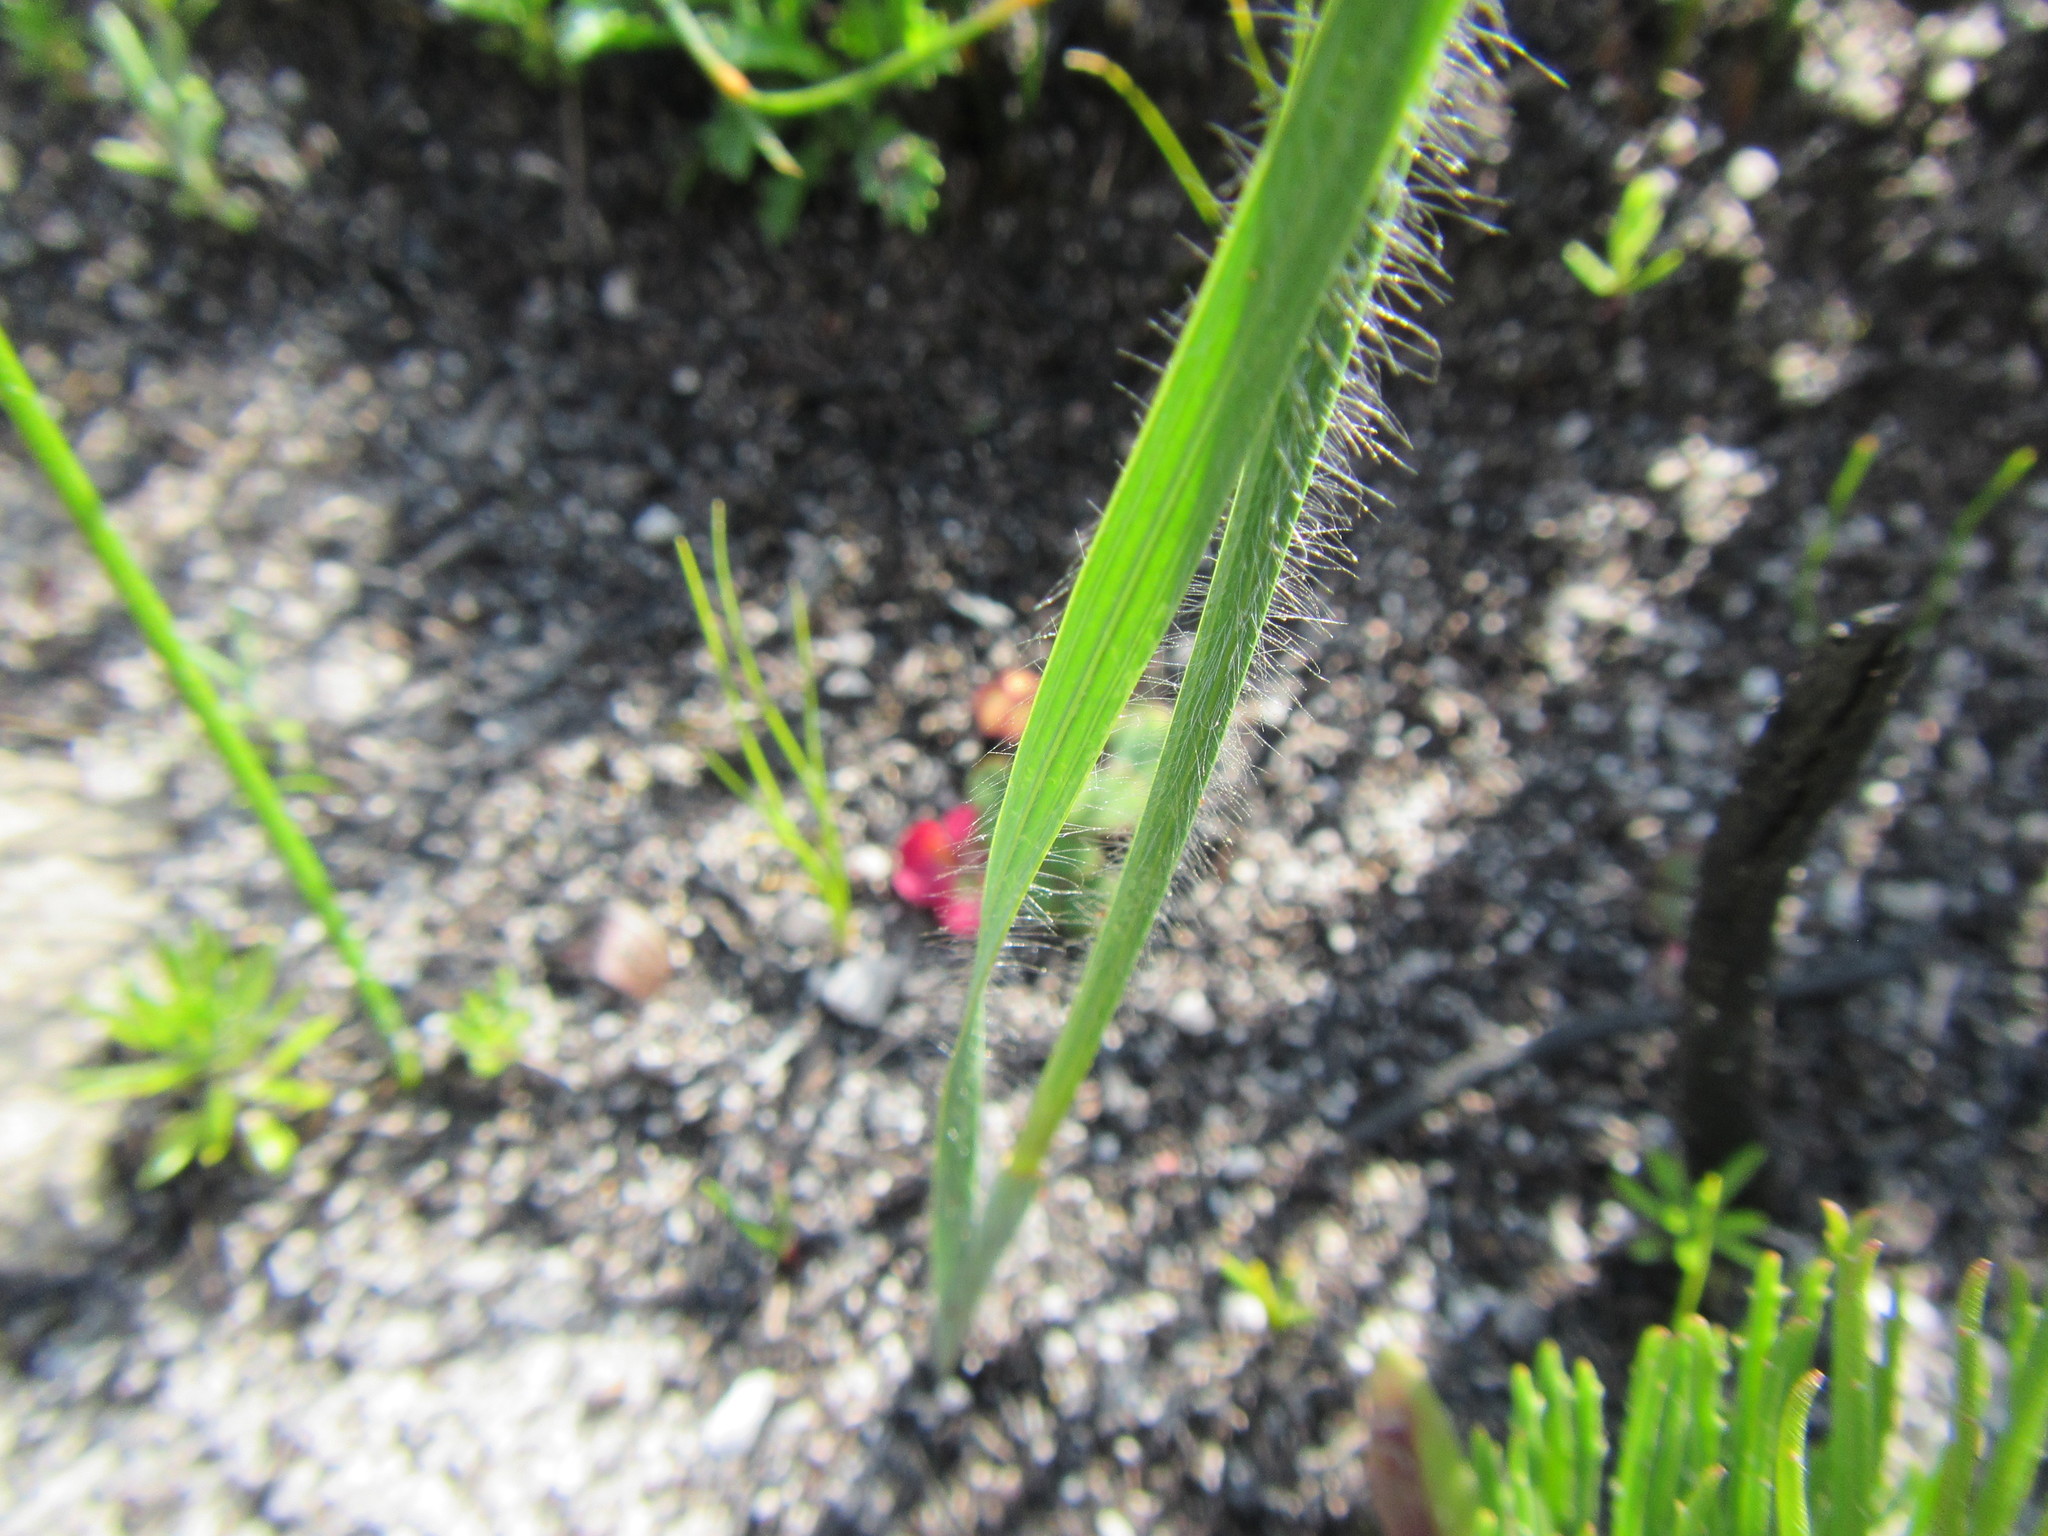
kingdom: Plantae
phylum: Tracheophyta
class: Liliopsida
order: Asparagales
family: Iridaceae
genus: Gladiolus
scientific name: Gladiolus hirsutus
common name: Small pink afrikaner
